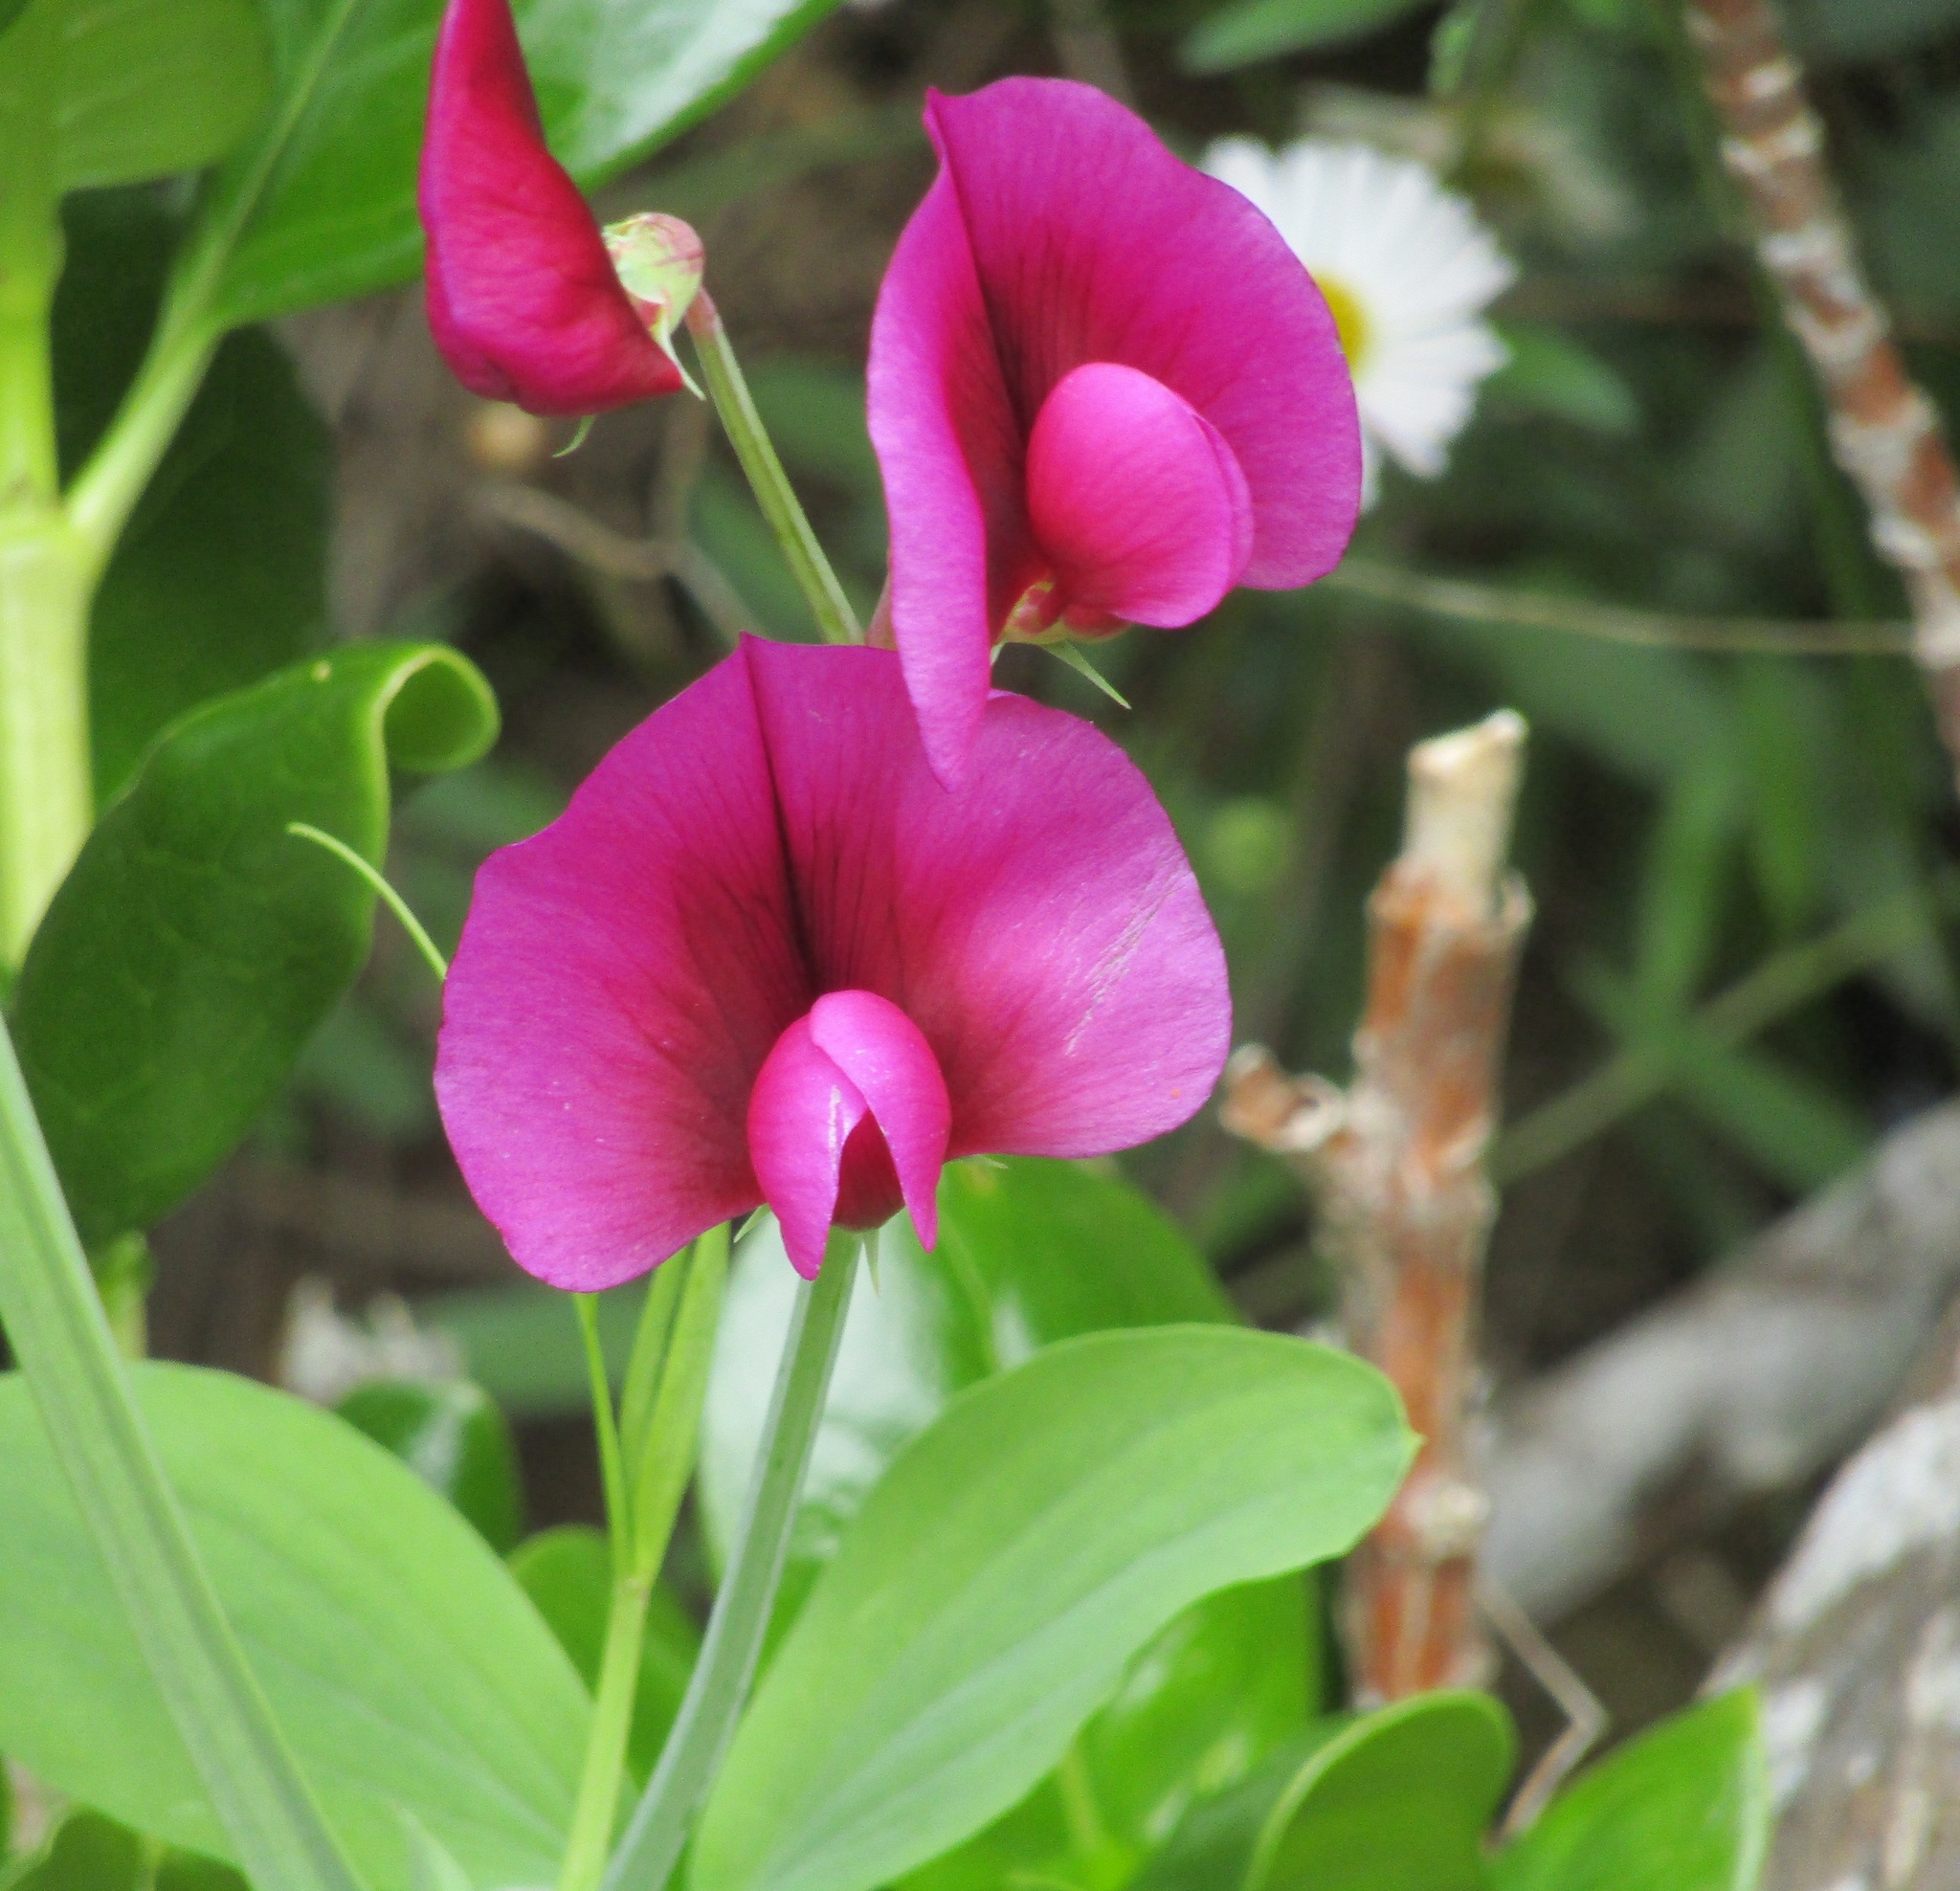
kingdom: Plantae
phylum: Tracheophyta
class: Magnoliopsida
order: Fabales
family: Fabaceae
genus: Lathyrus
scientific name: Lathyrus tingitanus
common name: Tangier pea
